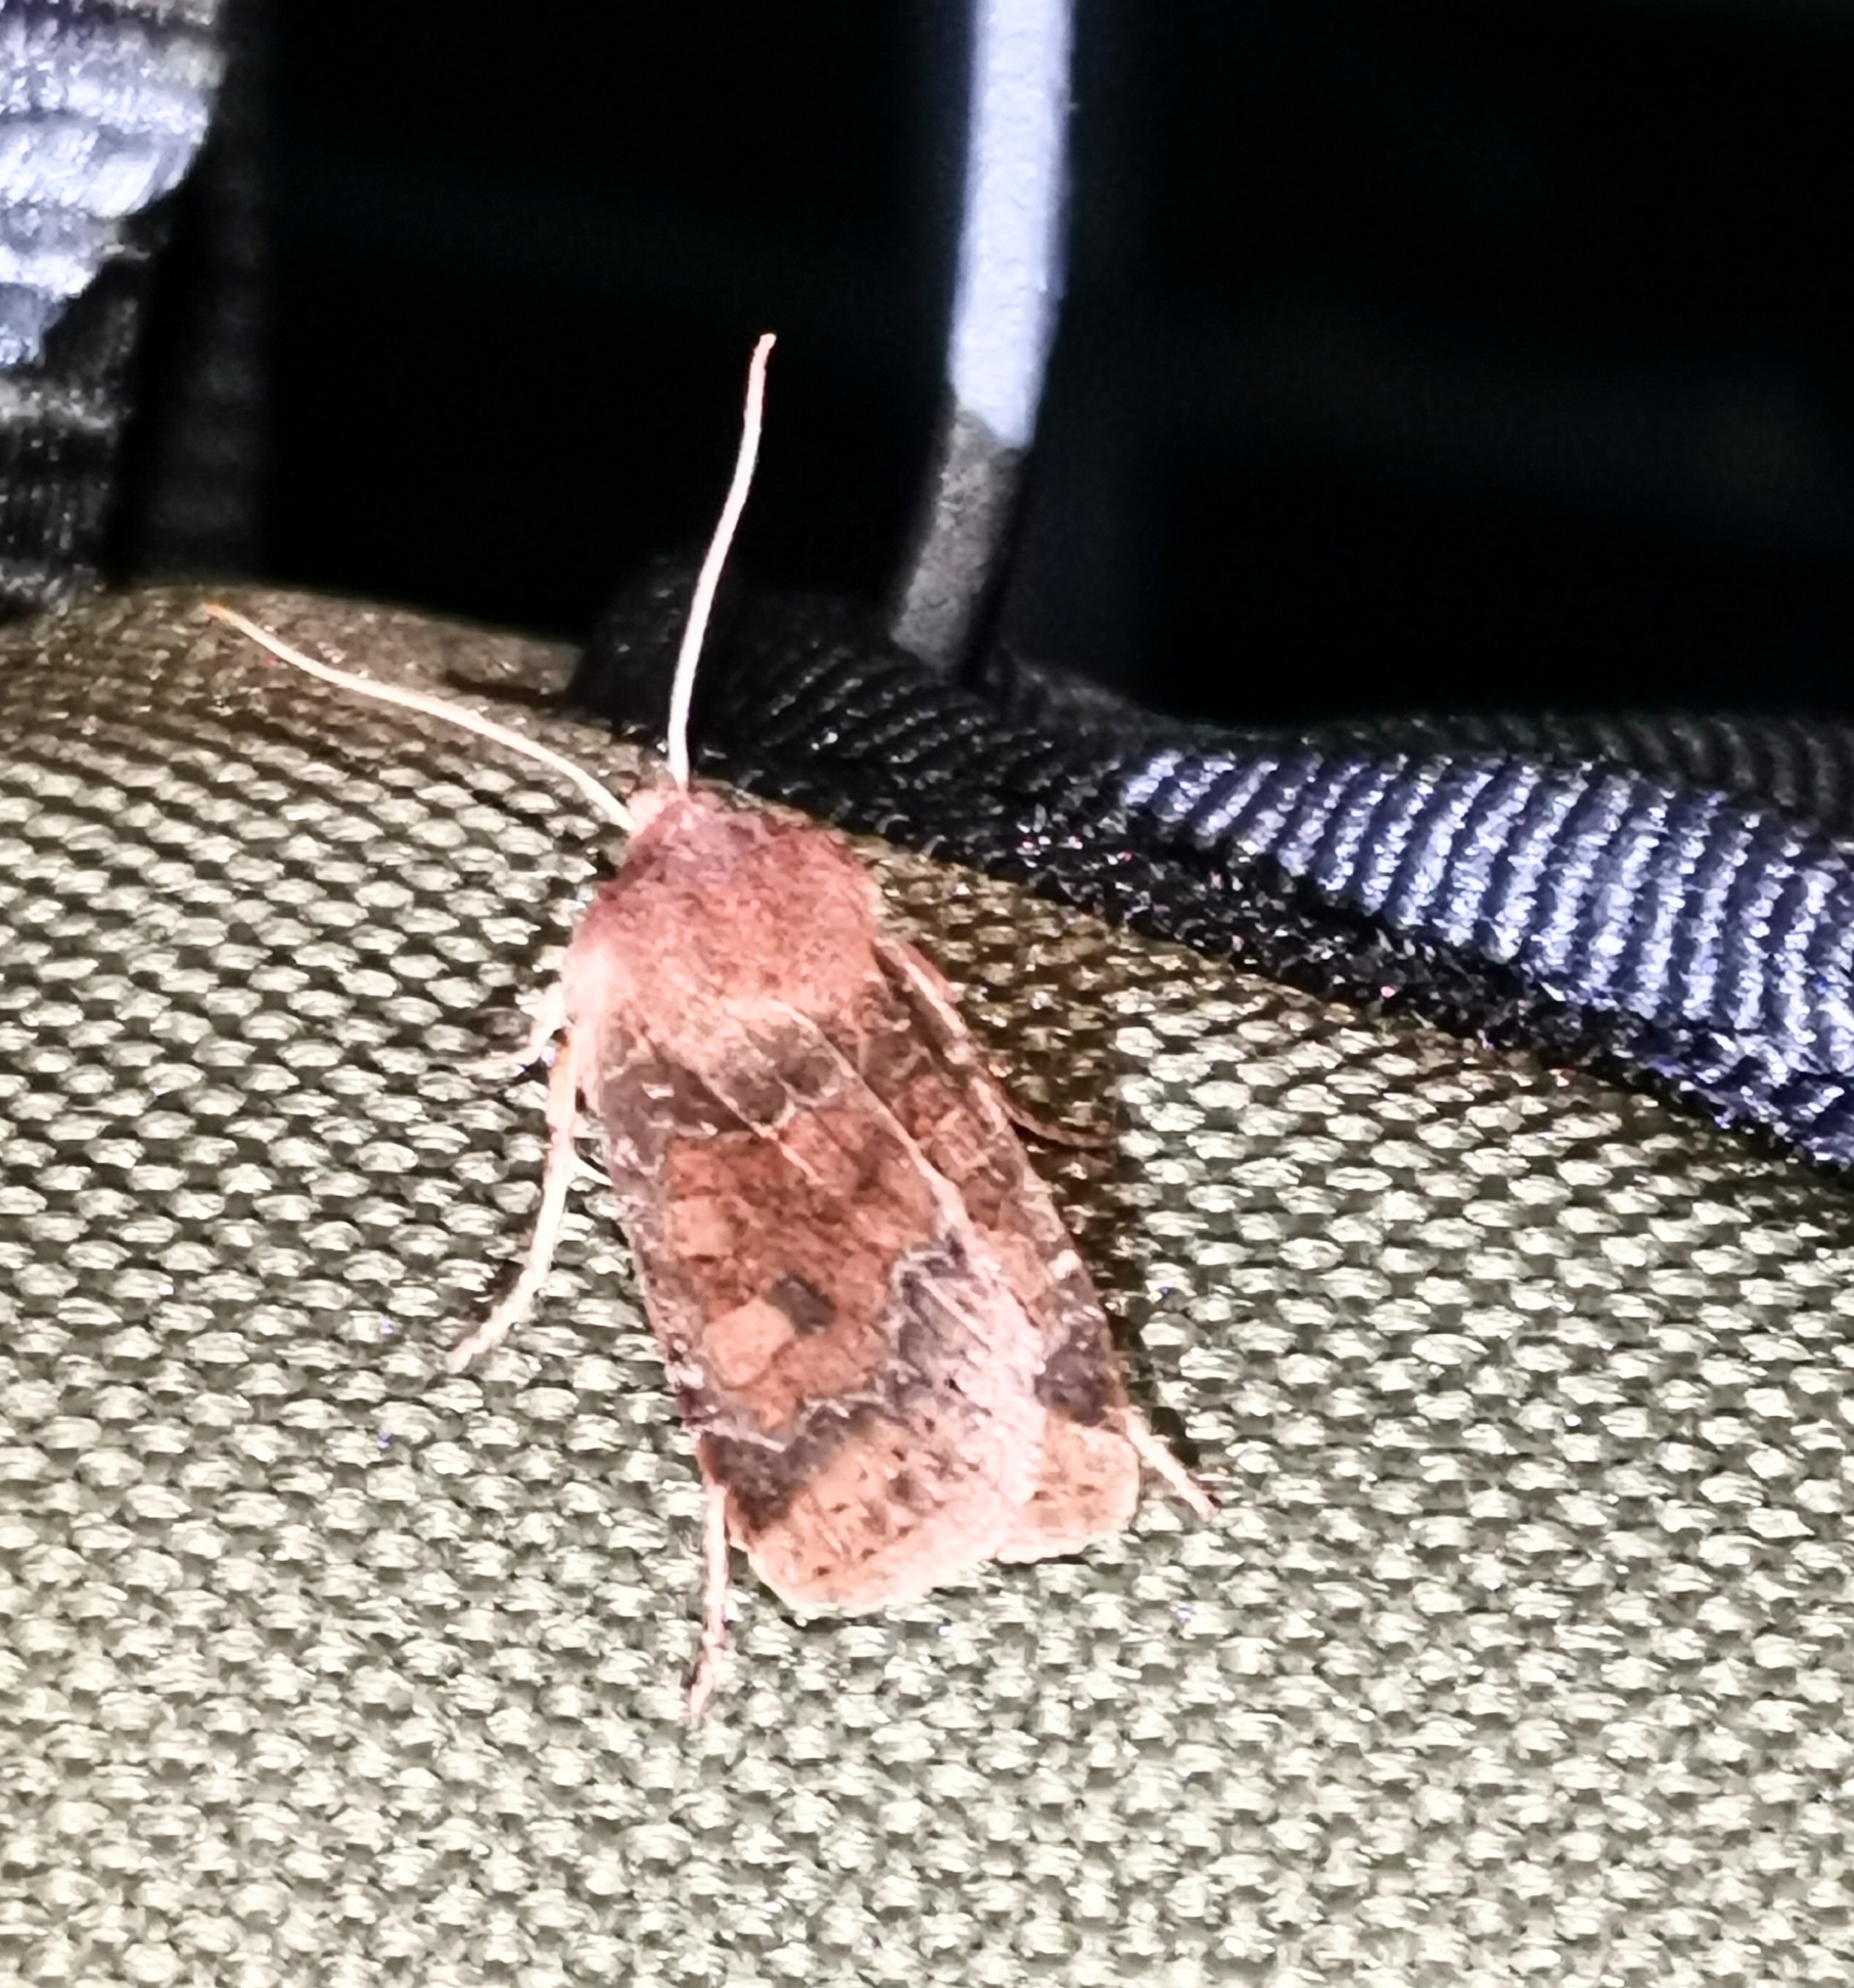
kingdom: Animalia
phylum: Arthropoda
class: Insecta
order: Lepidoptera
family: Noctuidae
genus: Conistra
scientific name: Conistra vaccinii
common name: Chestnut
